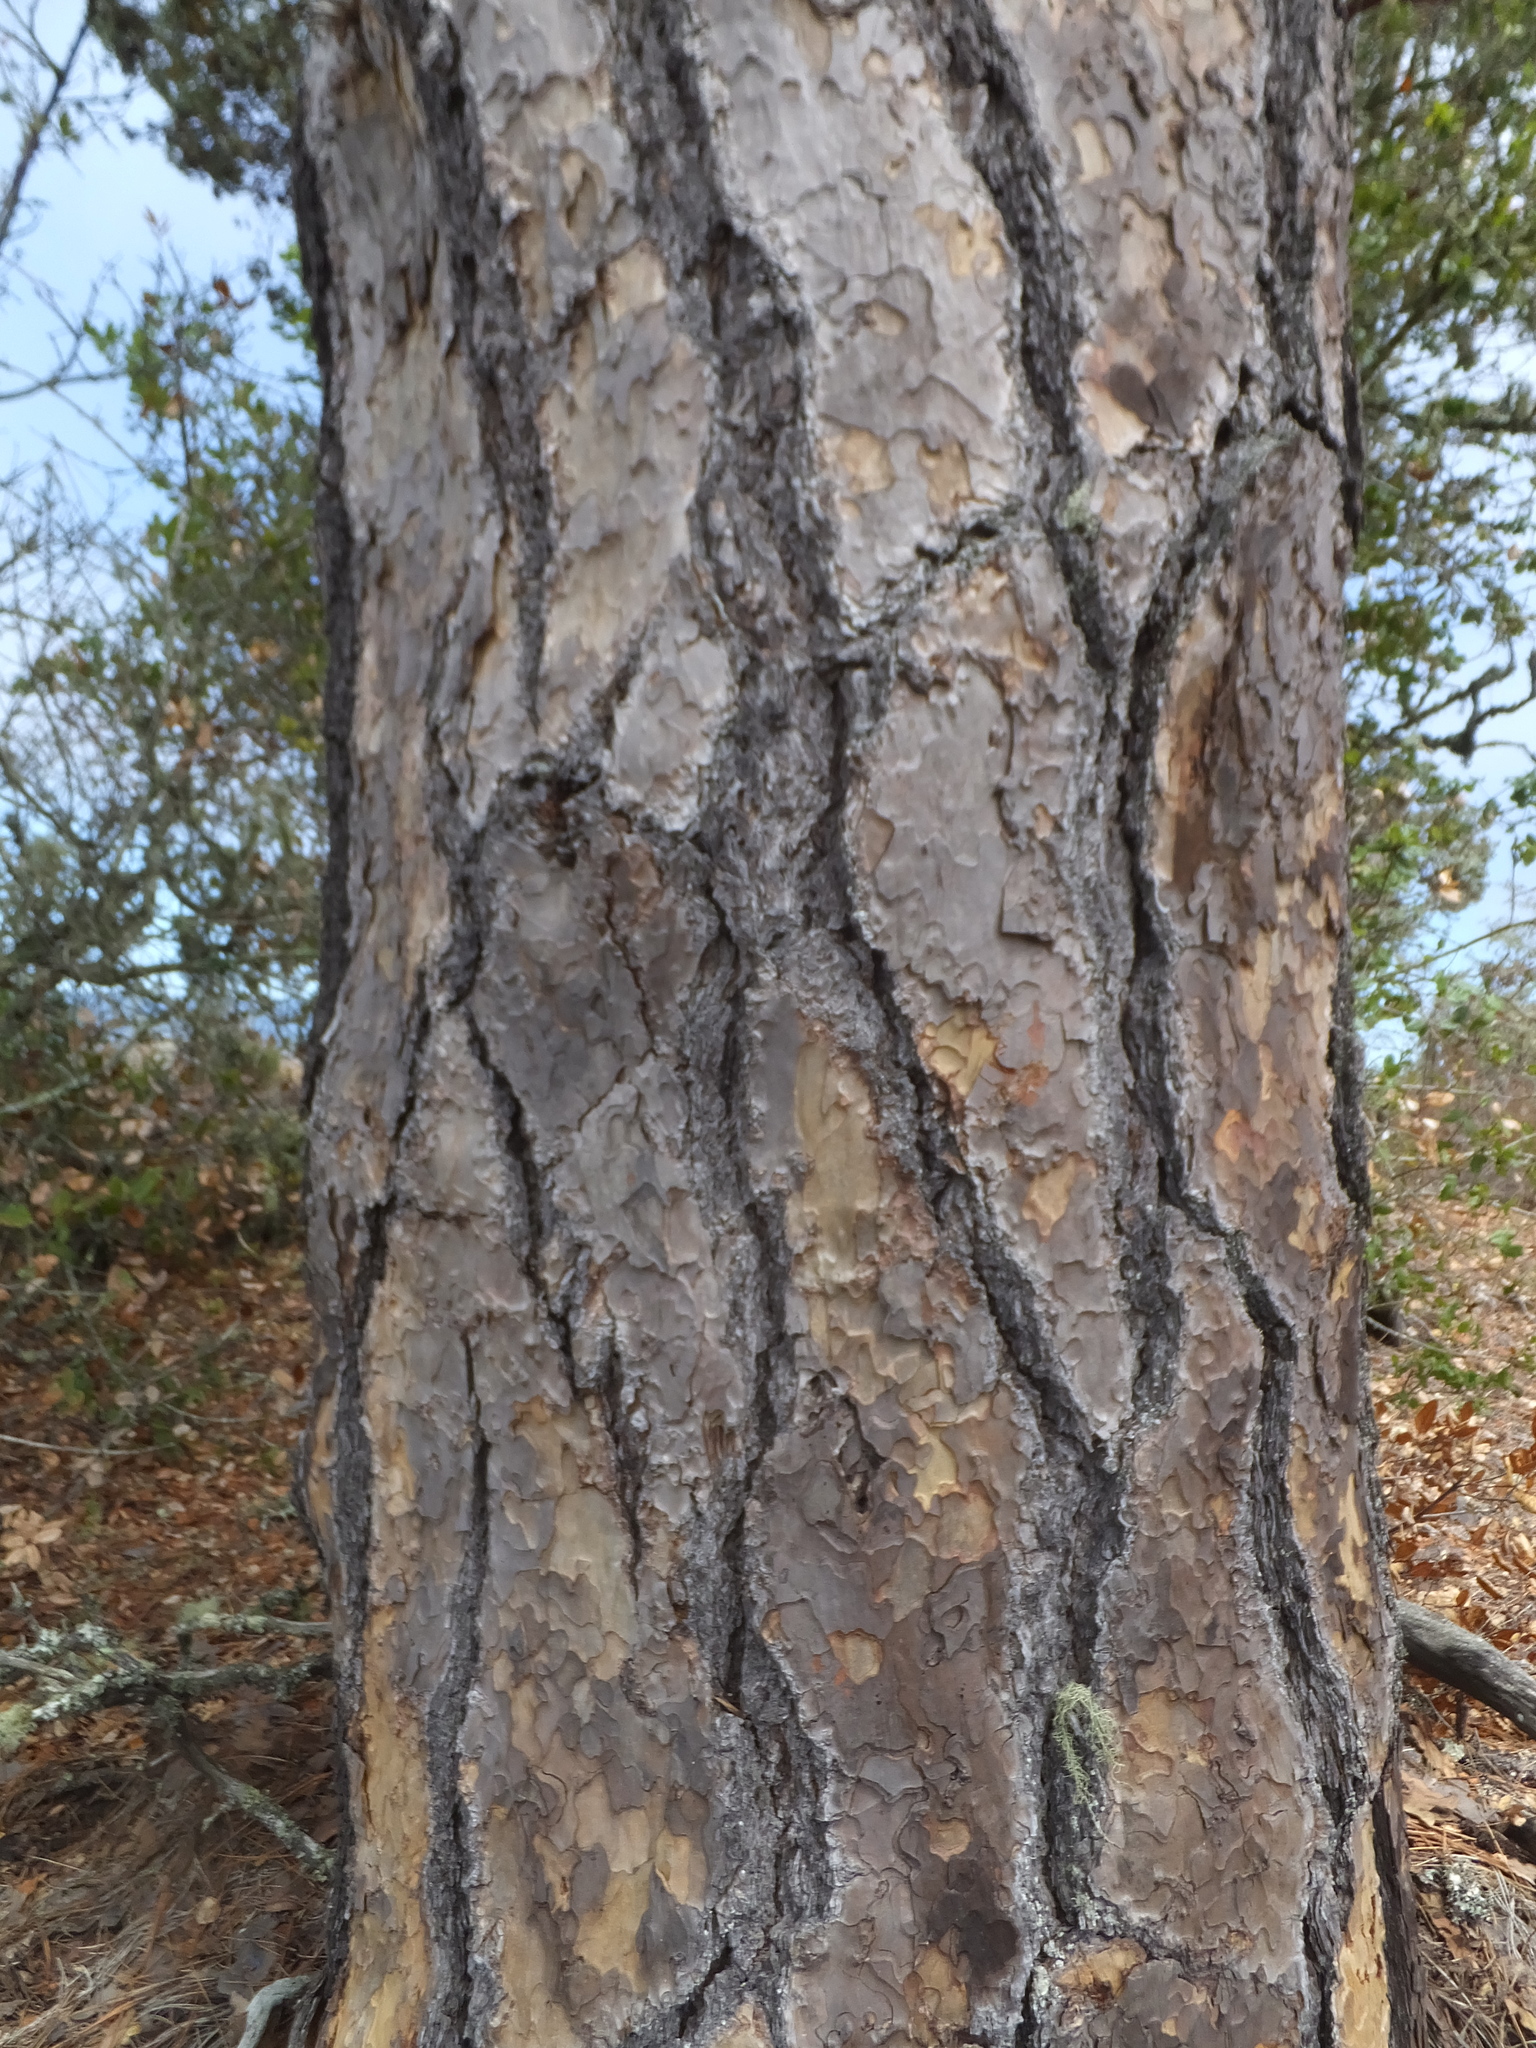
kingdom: Plantae
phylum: Tracheophyta
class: Pinopsida
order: Pinales
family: Pinaceae
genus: Pinus
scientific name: Pinus ponderosa
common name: Western yellow-pine
